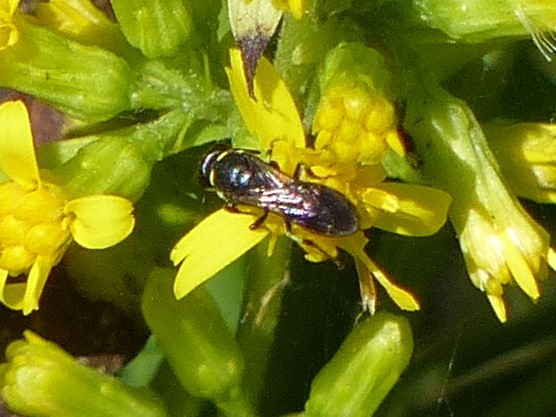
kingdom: Animalia
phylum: Arthropoda
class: Insecta
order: Hymenoptera
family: Colletidae
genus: Hylaeus
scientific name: Hylaeus modestus
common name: Yellow-faced bee
